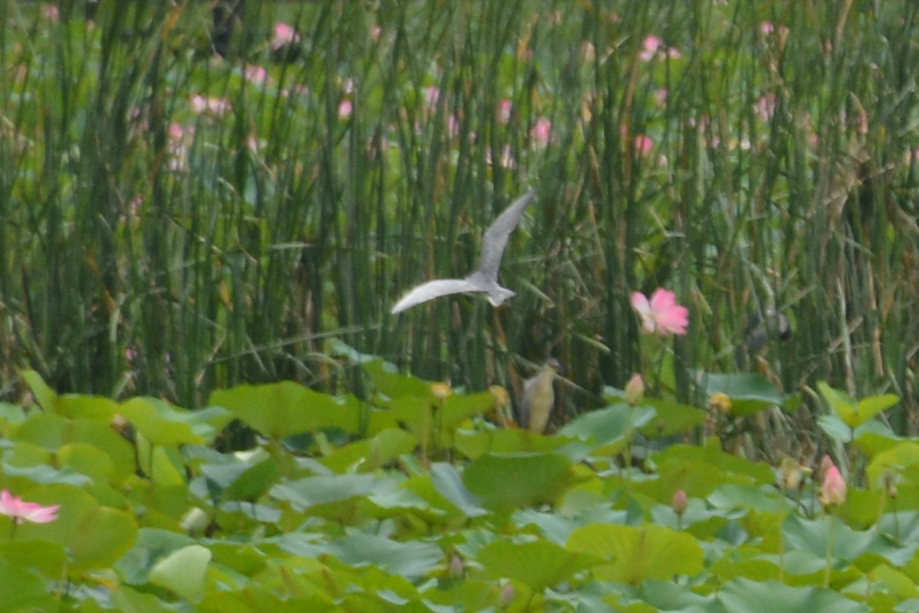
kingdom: Animalia
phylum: Chordata
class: Aves
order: Charadriiformes
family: Laridae
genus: Chlidonias
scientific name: Chlidonias hybrida
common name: Whiskered tern
